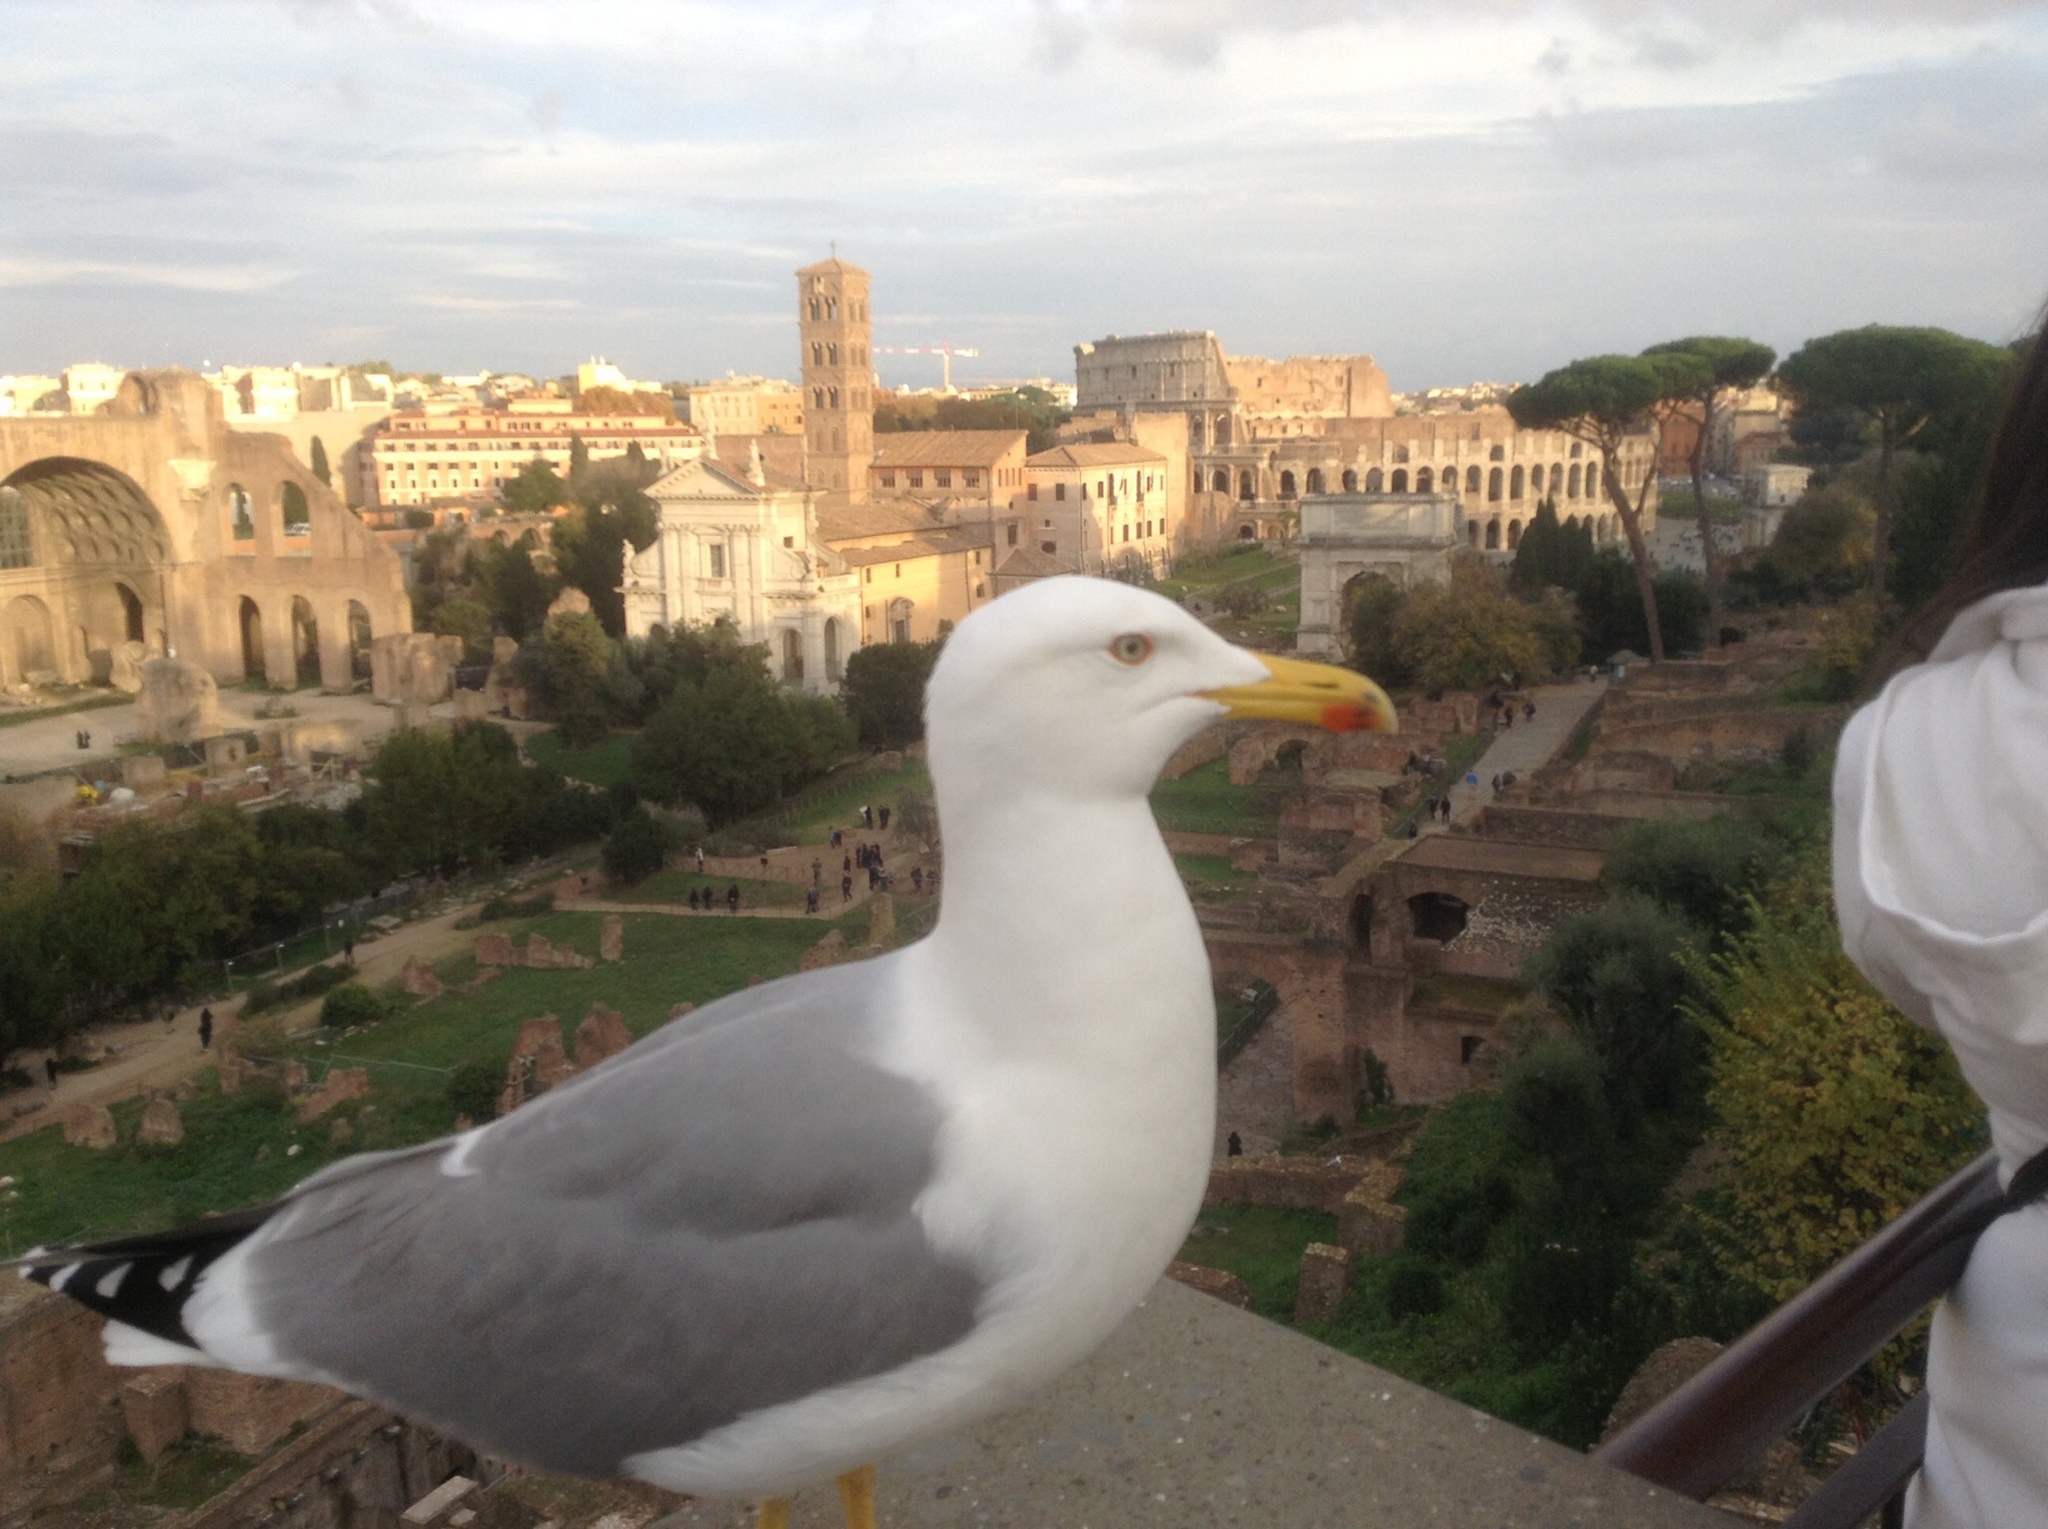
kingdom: Animalia
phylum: Chordata
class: Aves
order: Charadriiformes
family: Laridae
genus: Larus
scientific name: Larus michahellis
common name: Yellow-legged gull
